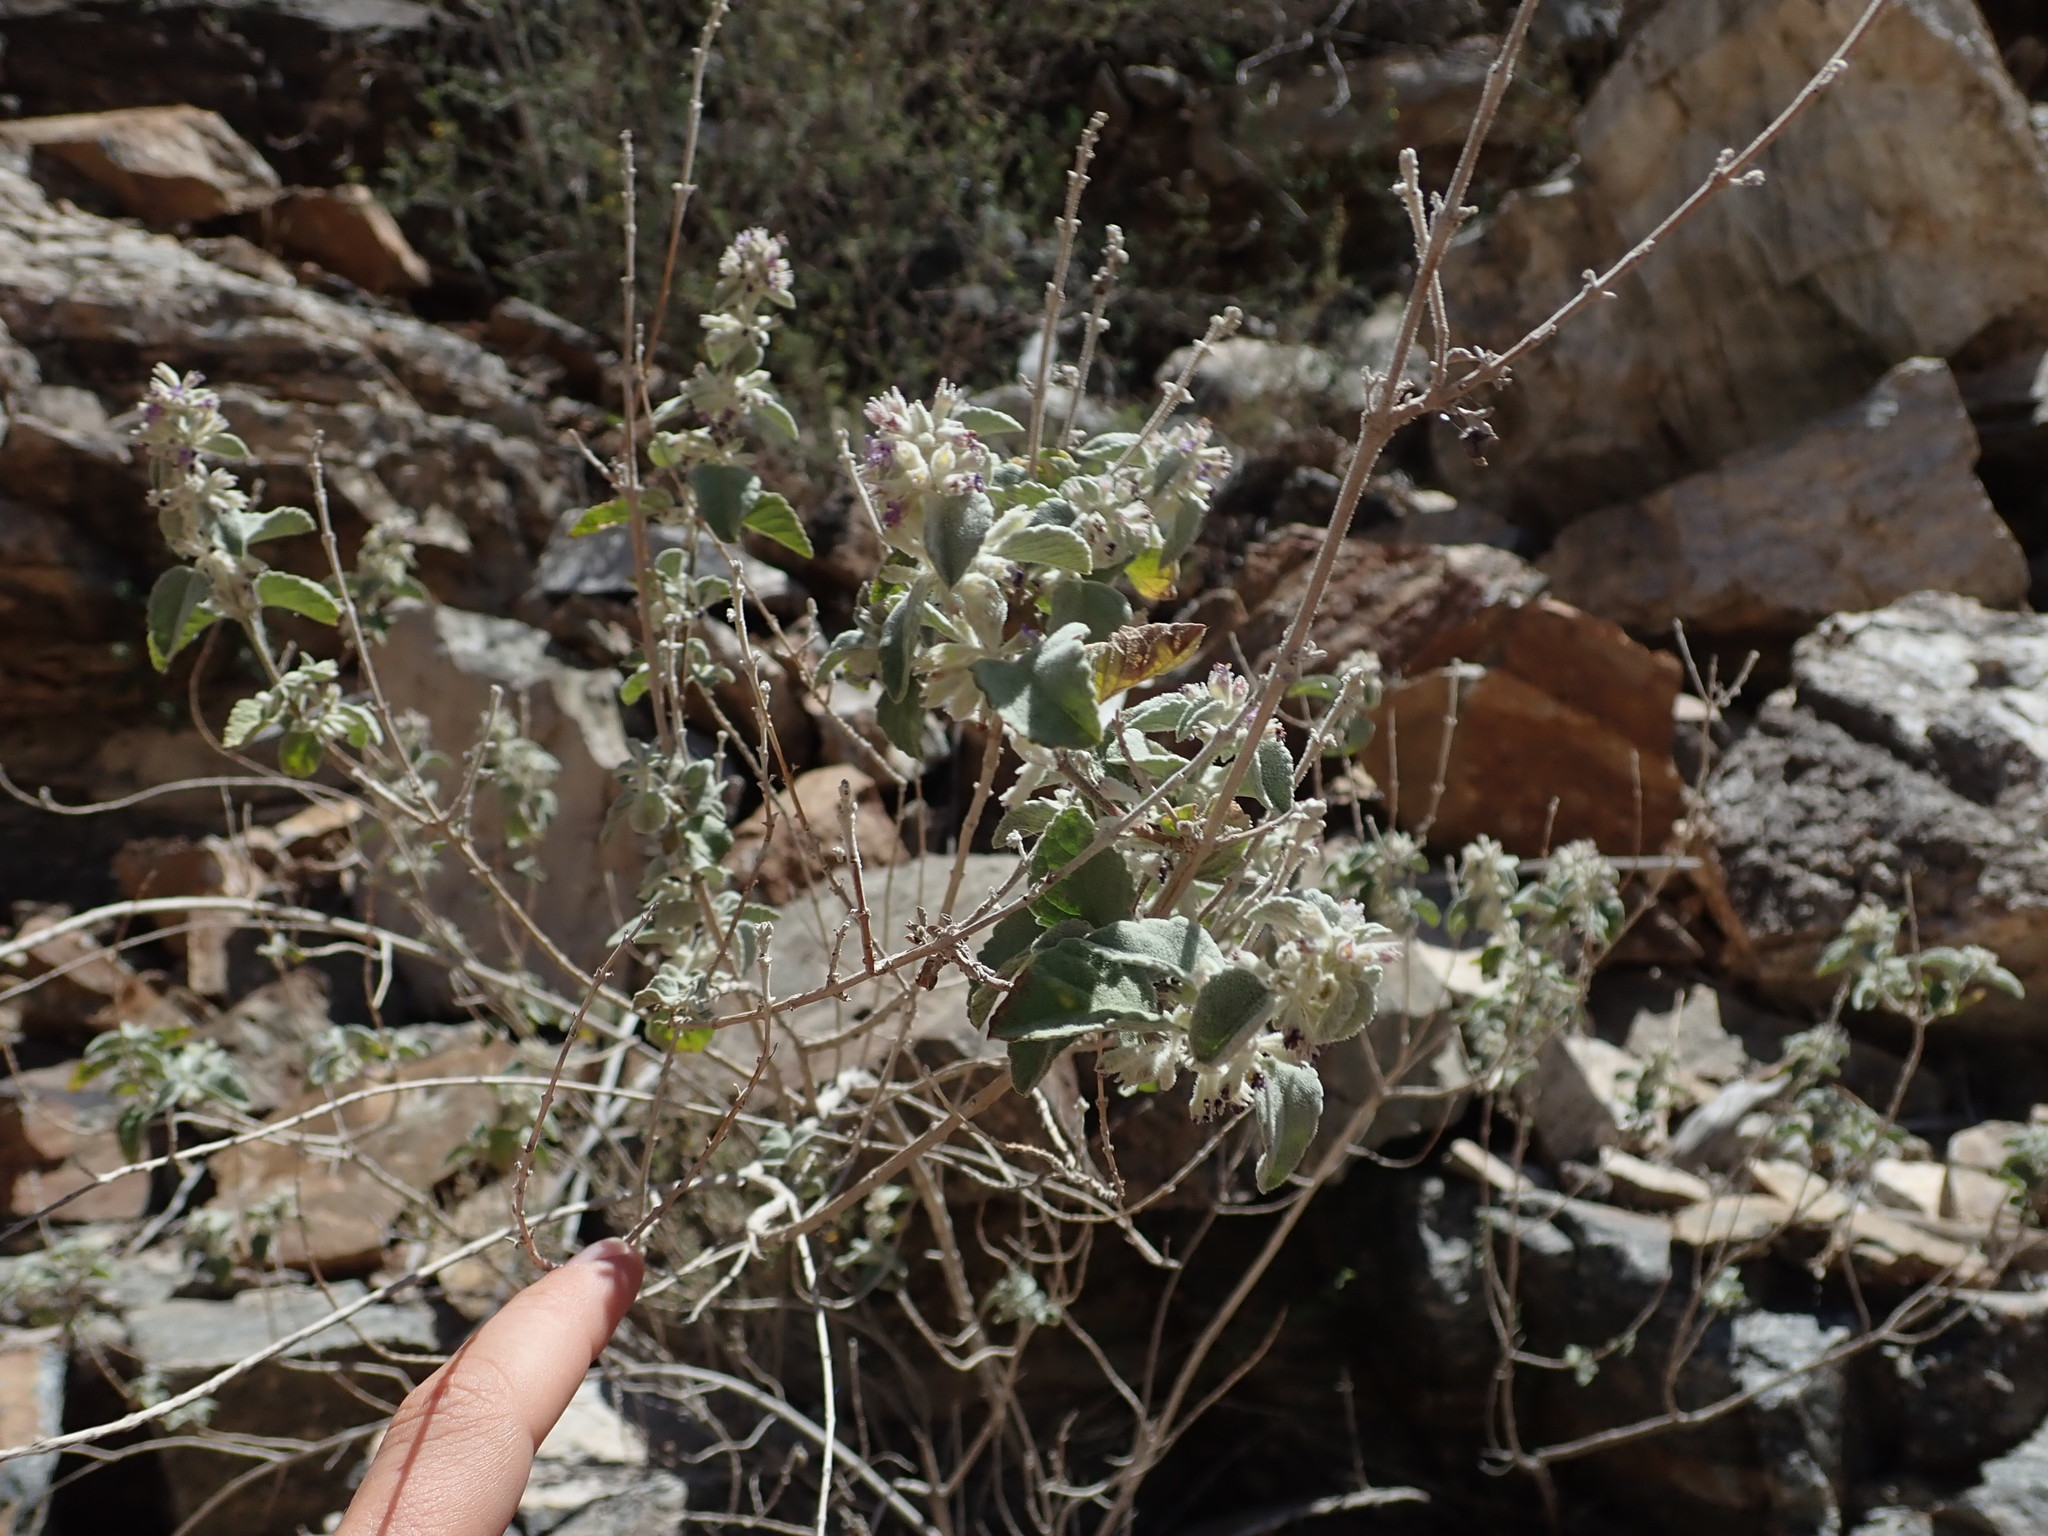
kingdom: Plantae
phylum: Tracheophyta
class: Magnoliopsida
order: Lamiales
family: Lamiaceae
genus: Condea
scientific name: Condea emoryi
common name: Chia
